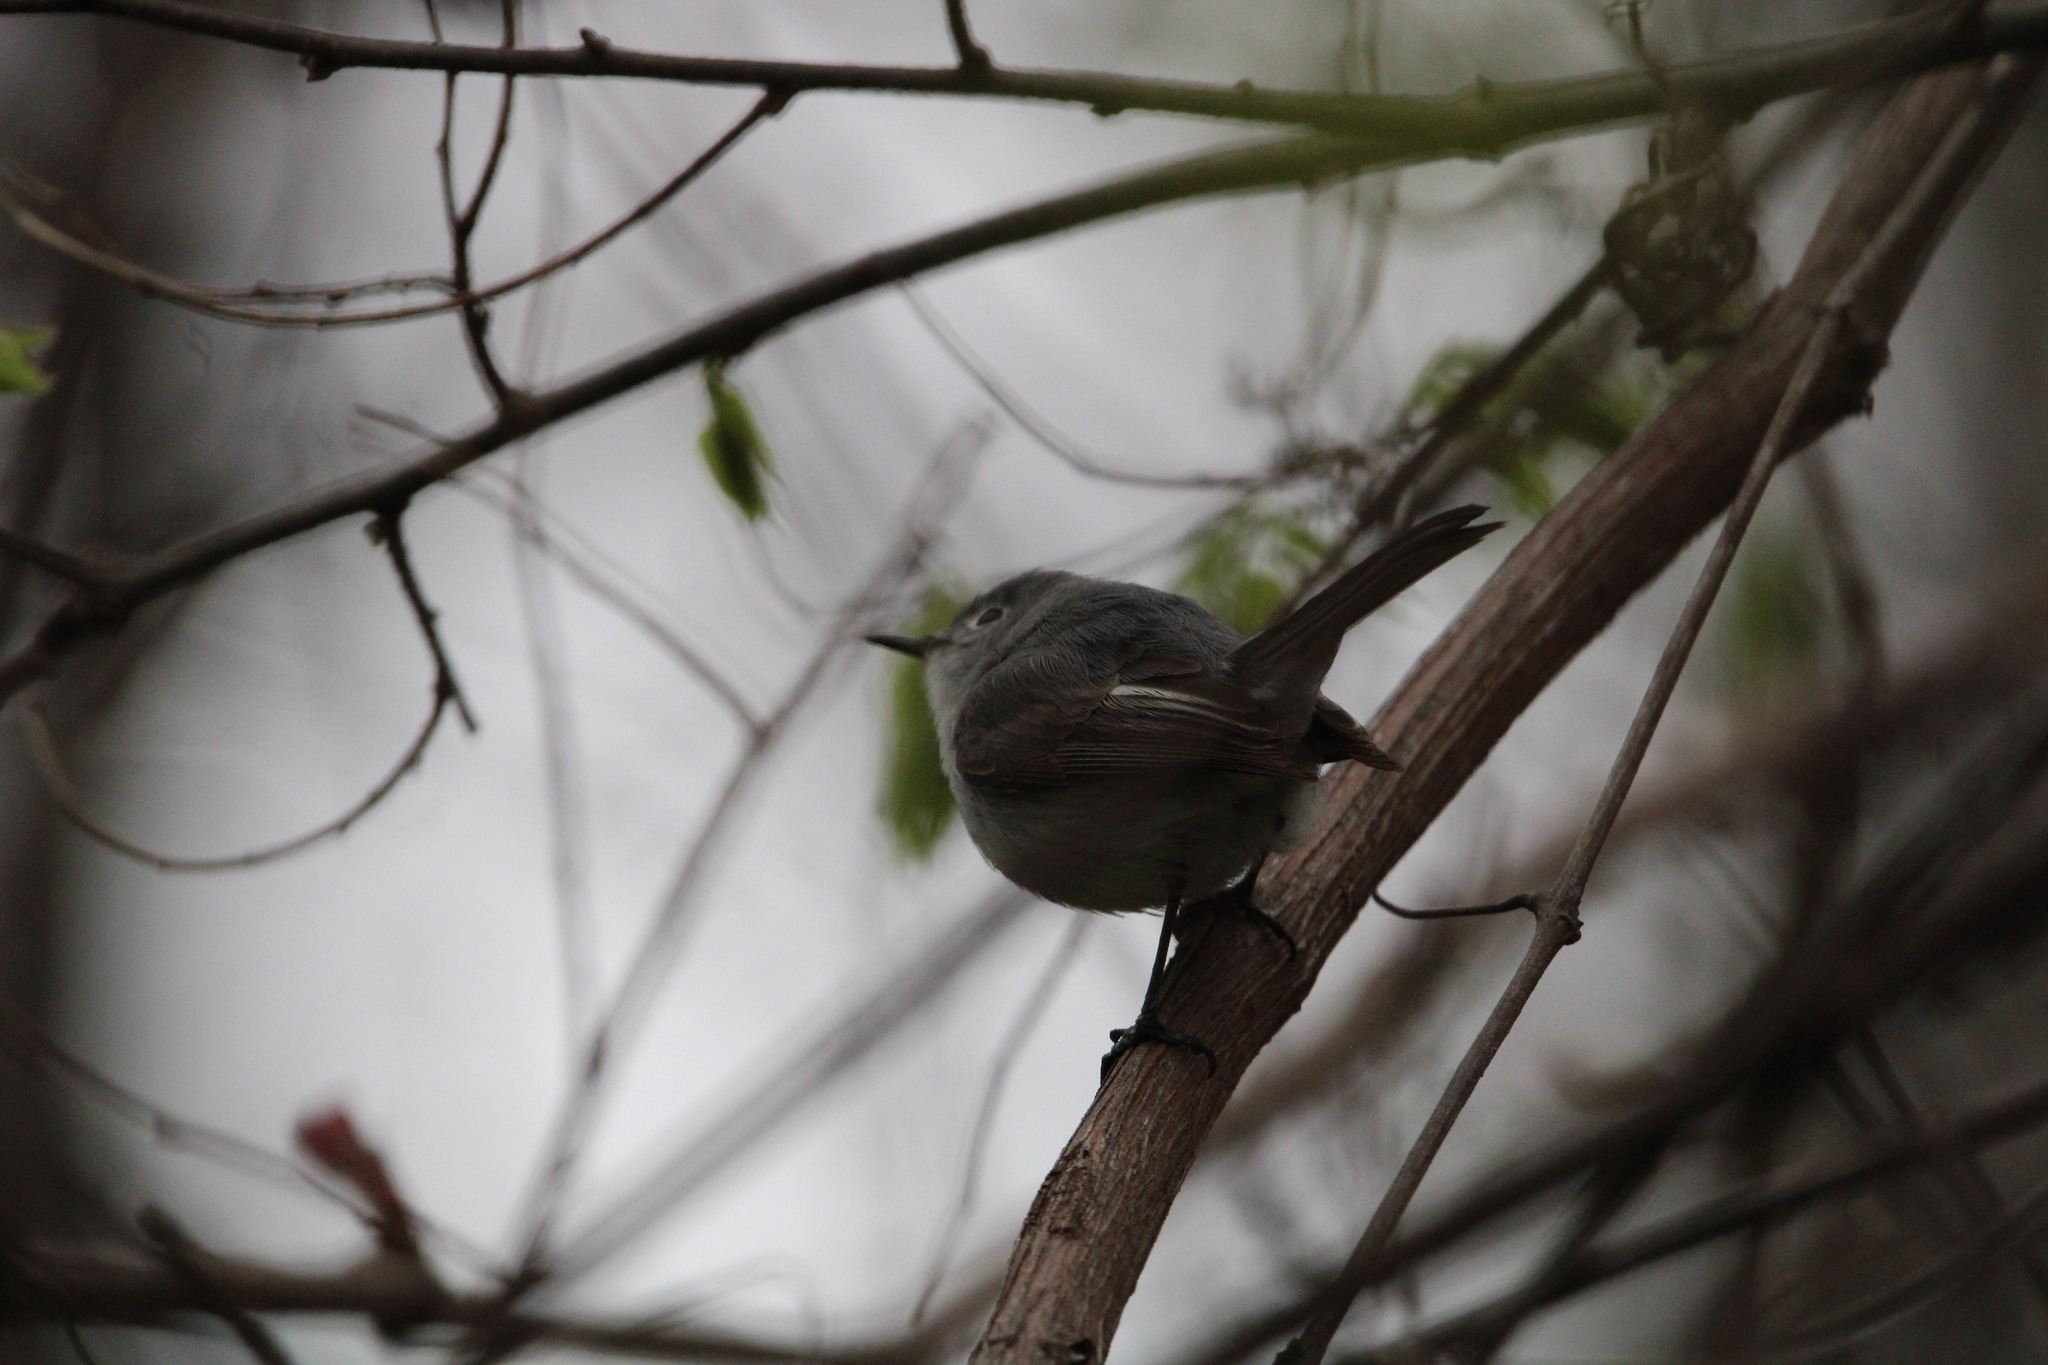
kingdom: Animalia
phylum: Chordata
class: Aves
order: Passeriformes
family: Polioptilidae
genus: Polioptila
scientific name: Polioptila caerulea
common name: Blue-gray gnatcatcher
